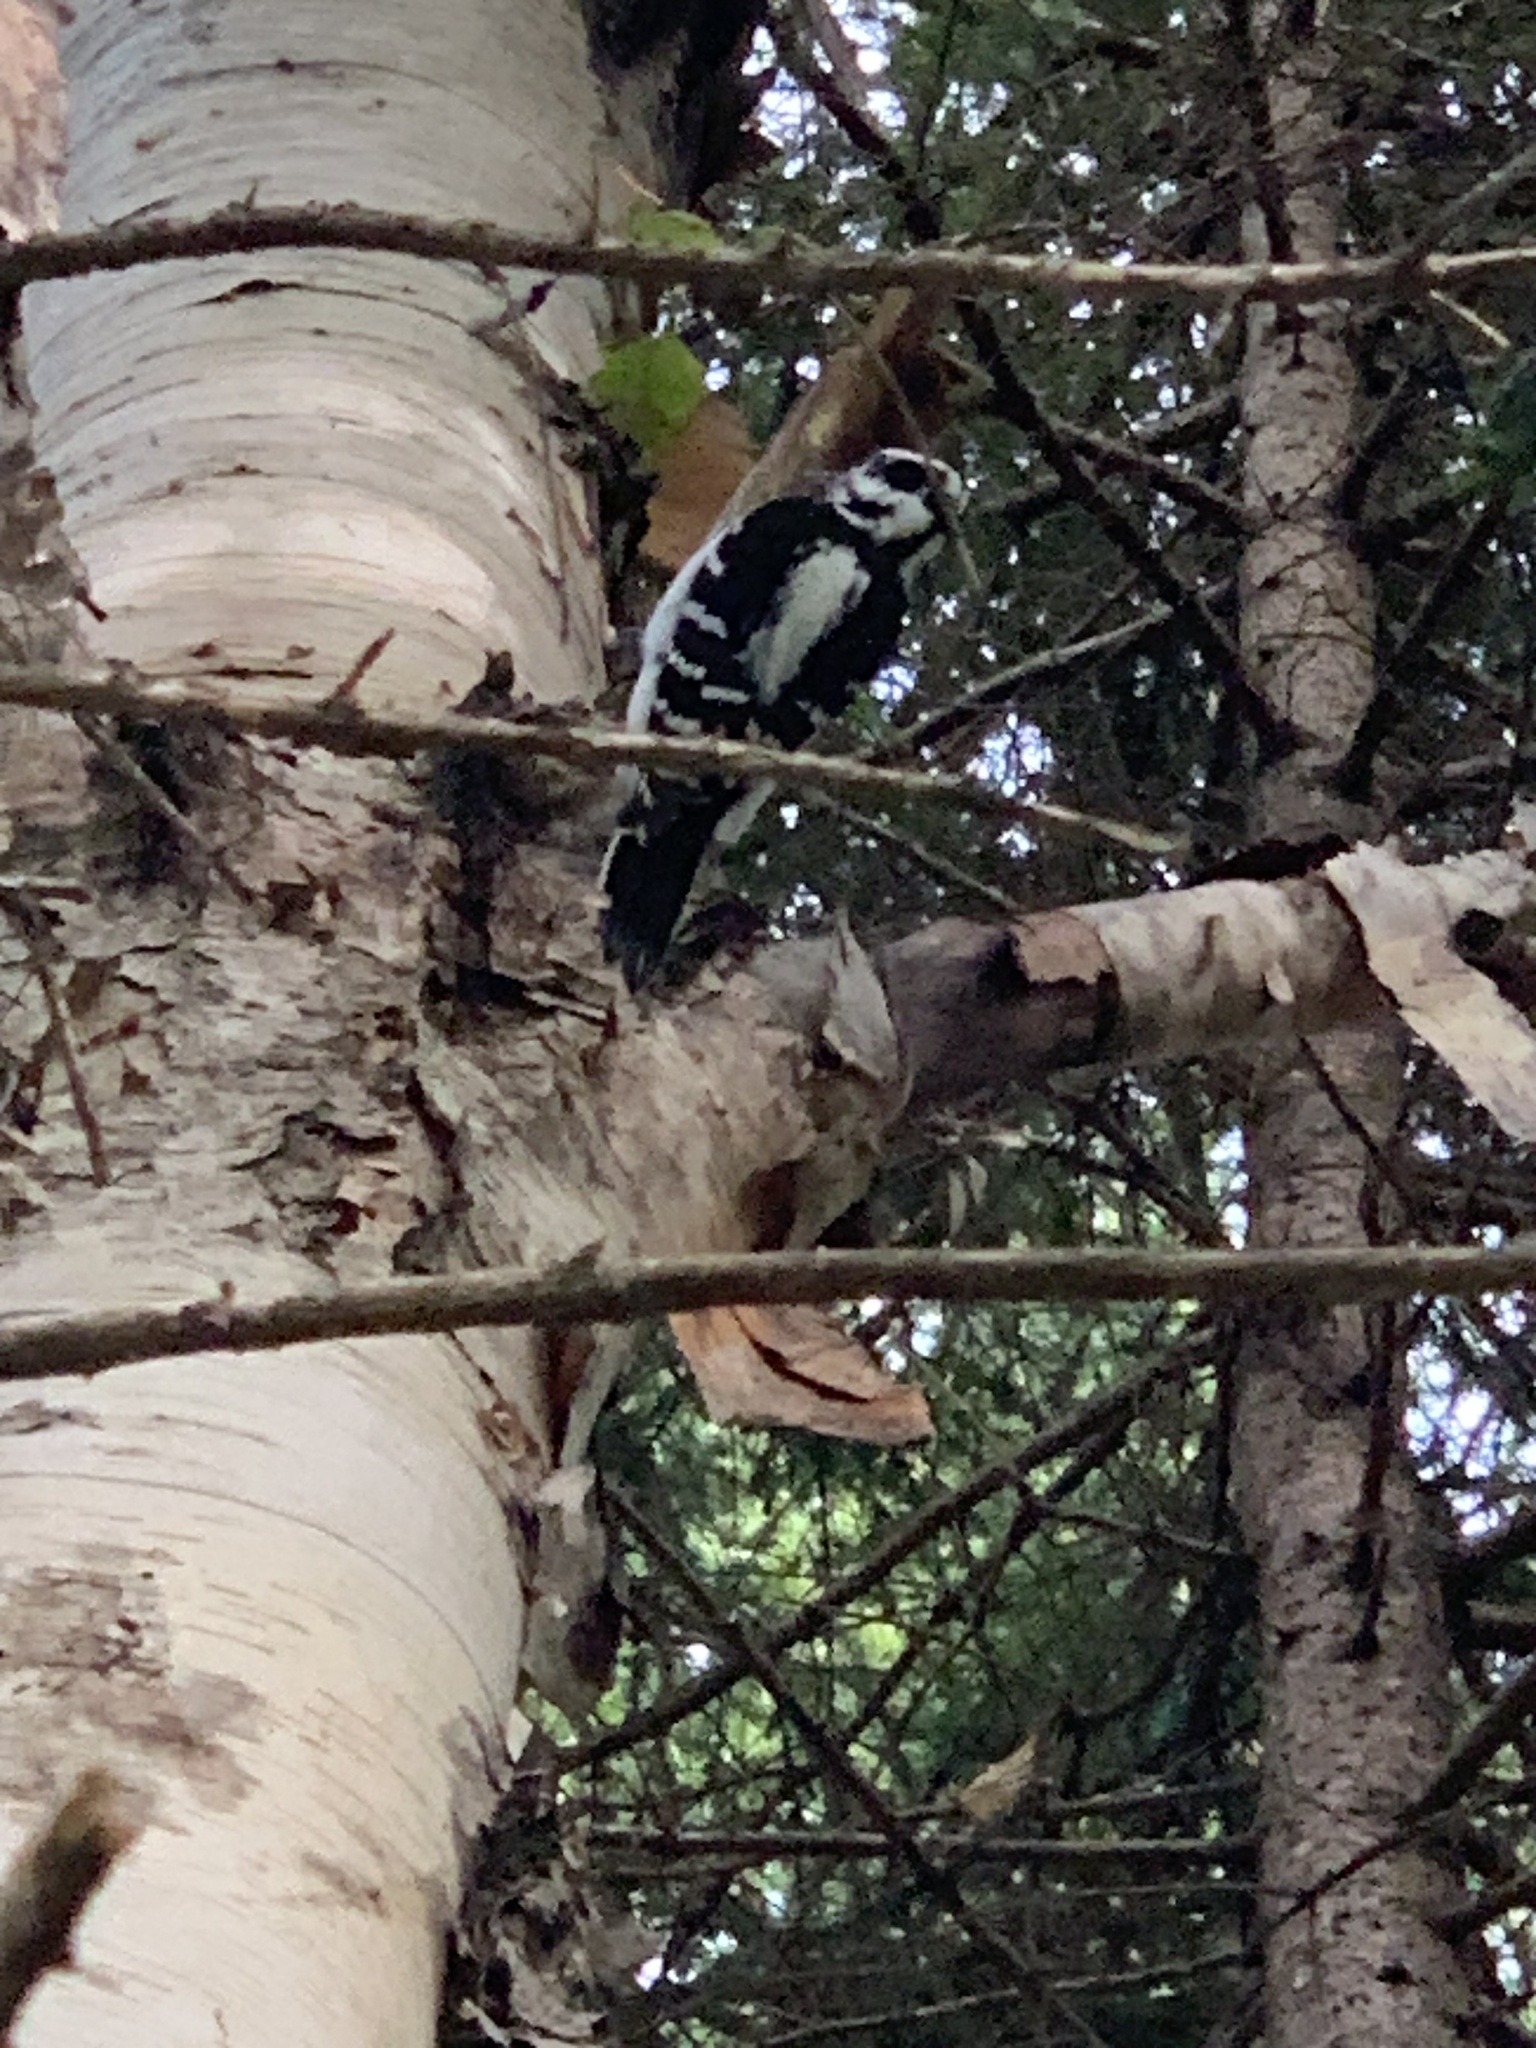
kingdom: Animalia
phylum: Chordata
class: Aves
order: Piciformes
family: Picidae
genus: Dryobates
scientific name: Dryobates pubescens
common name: Downy woodpecker
